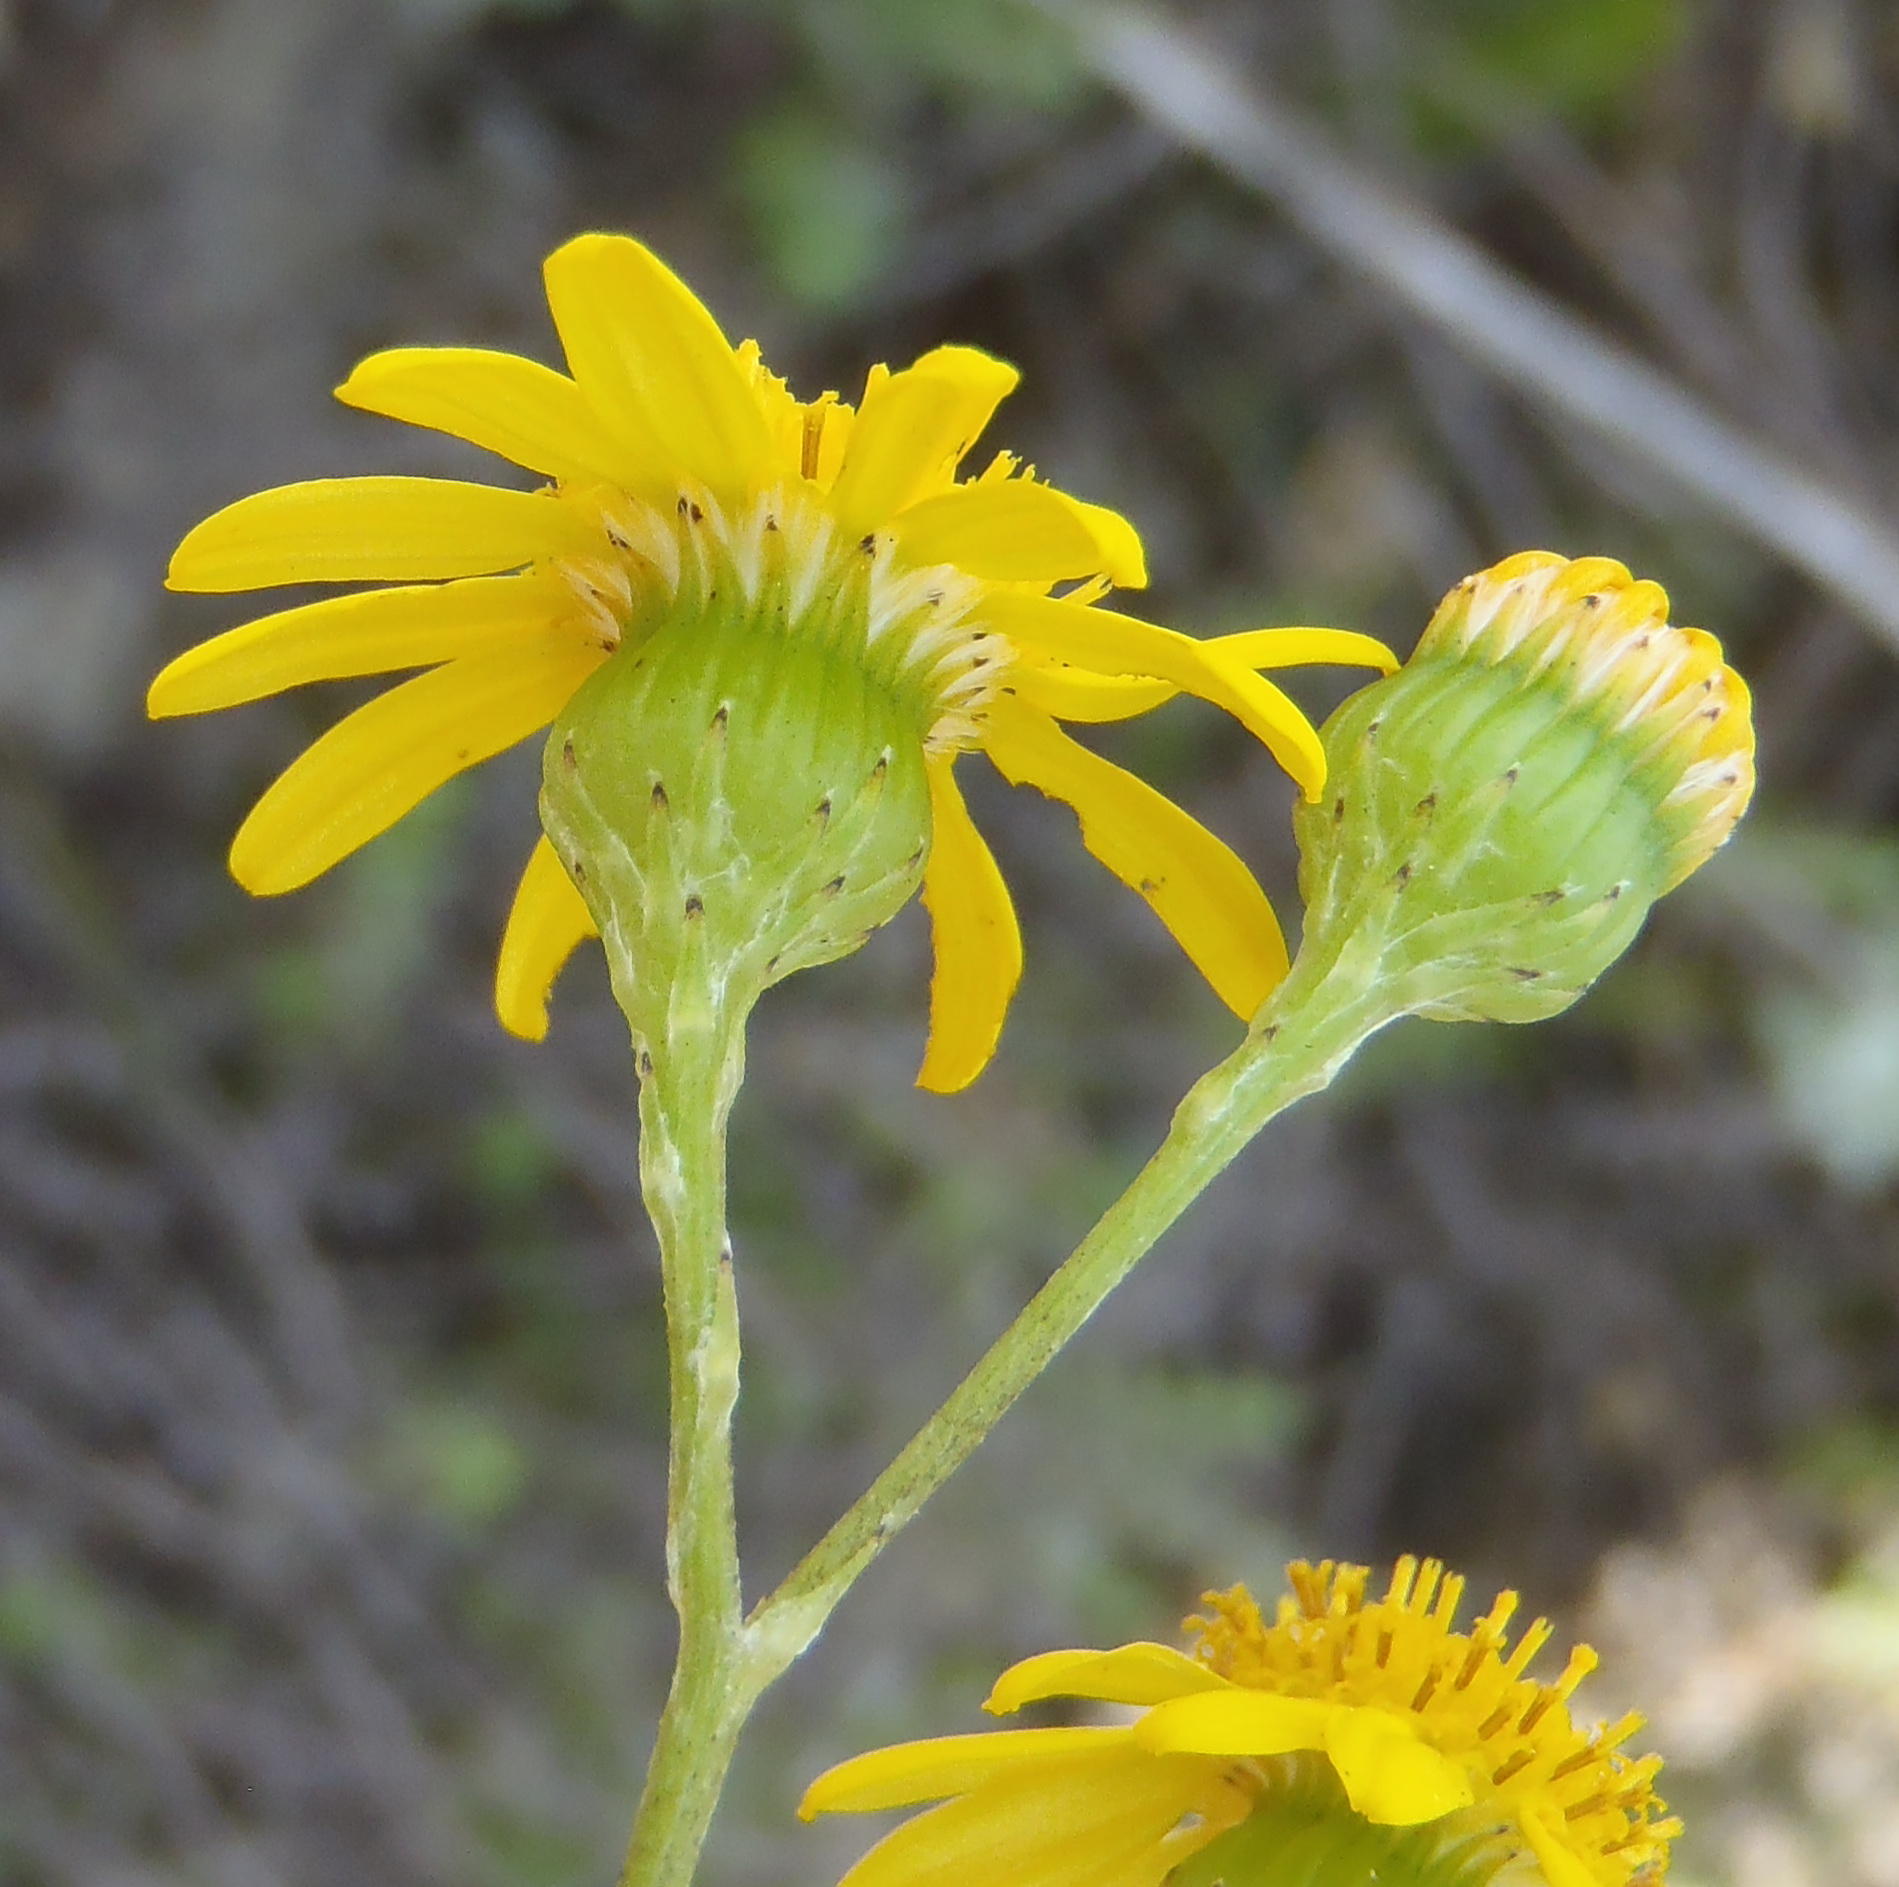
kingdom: Plantae
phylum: Tracheophyta
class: Magnoliopsida
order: Asterales
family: Asteraceae
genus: Senecio
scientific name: Senecio ilicifolius
